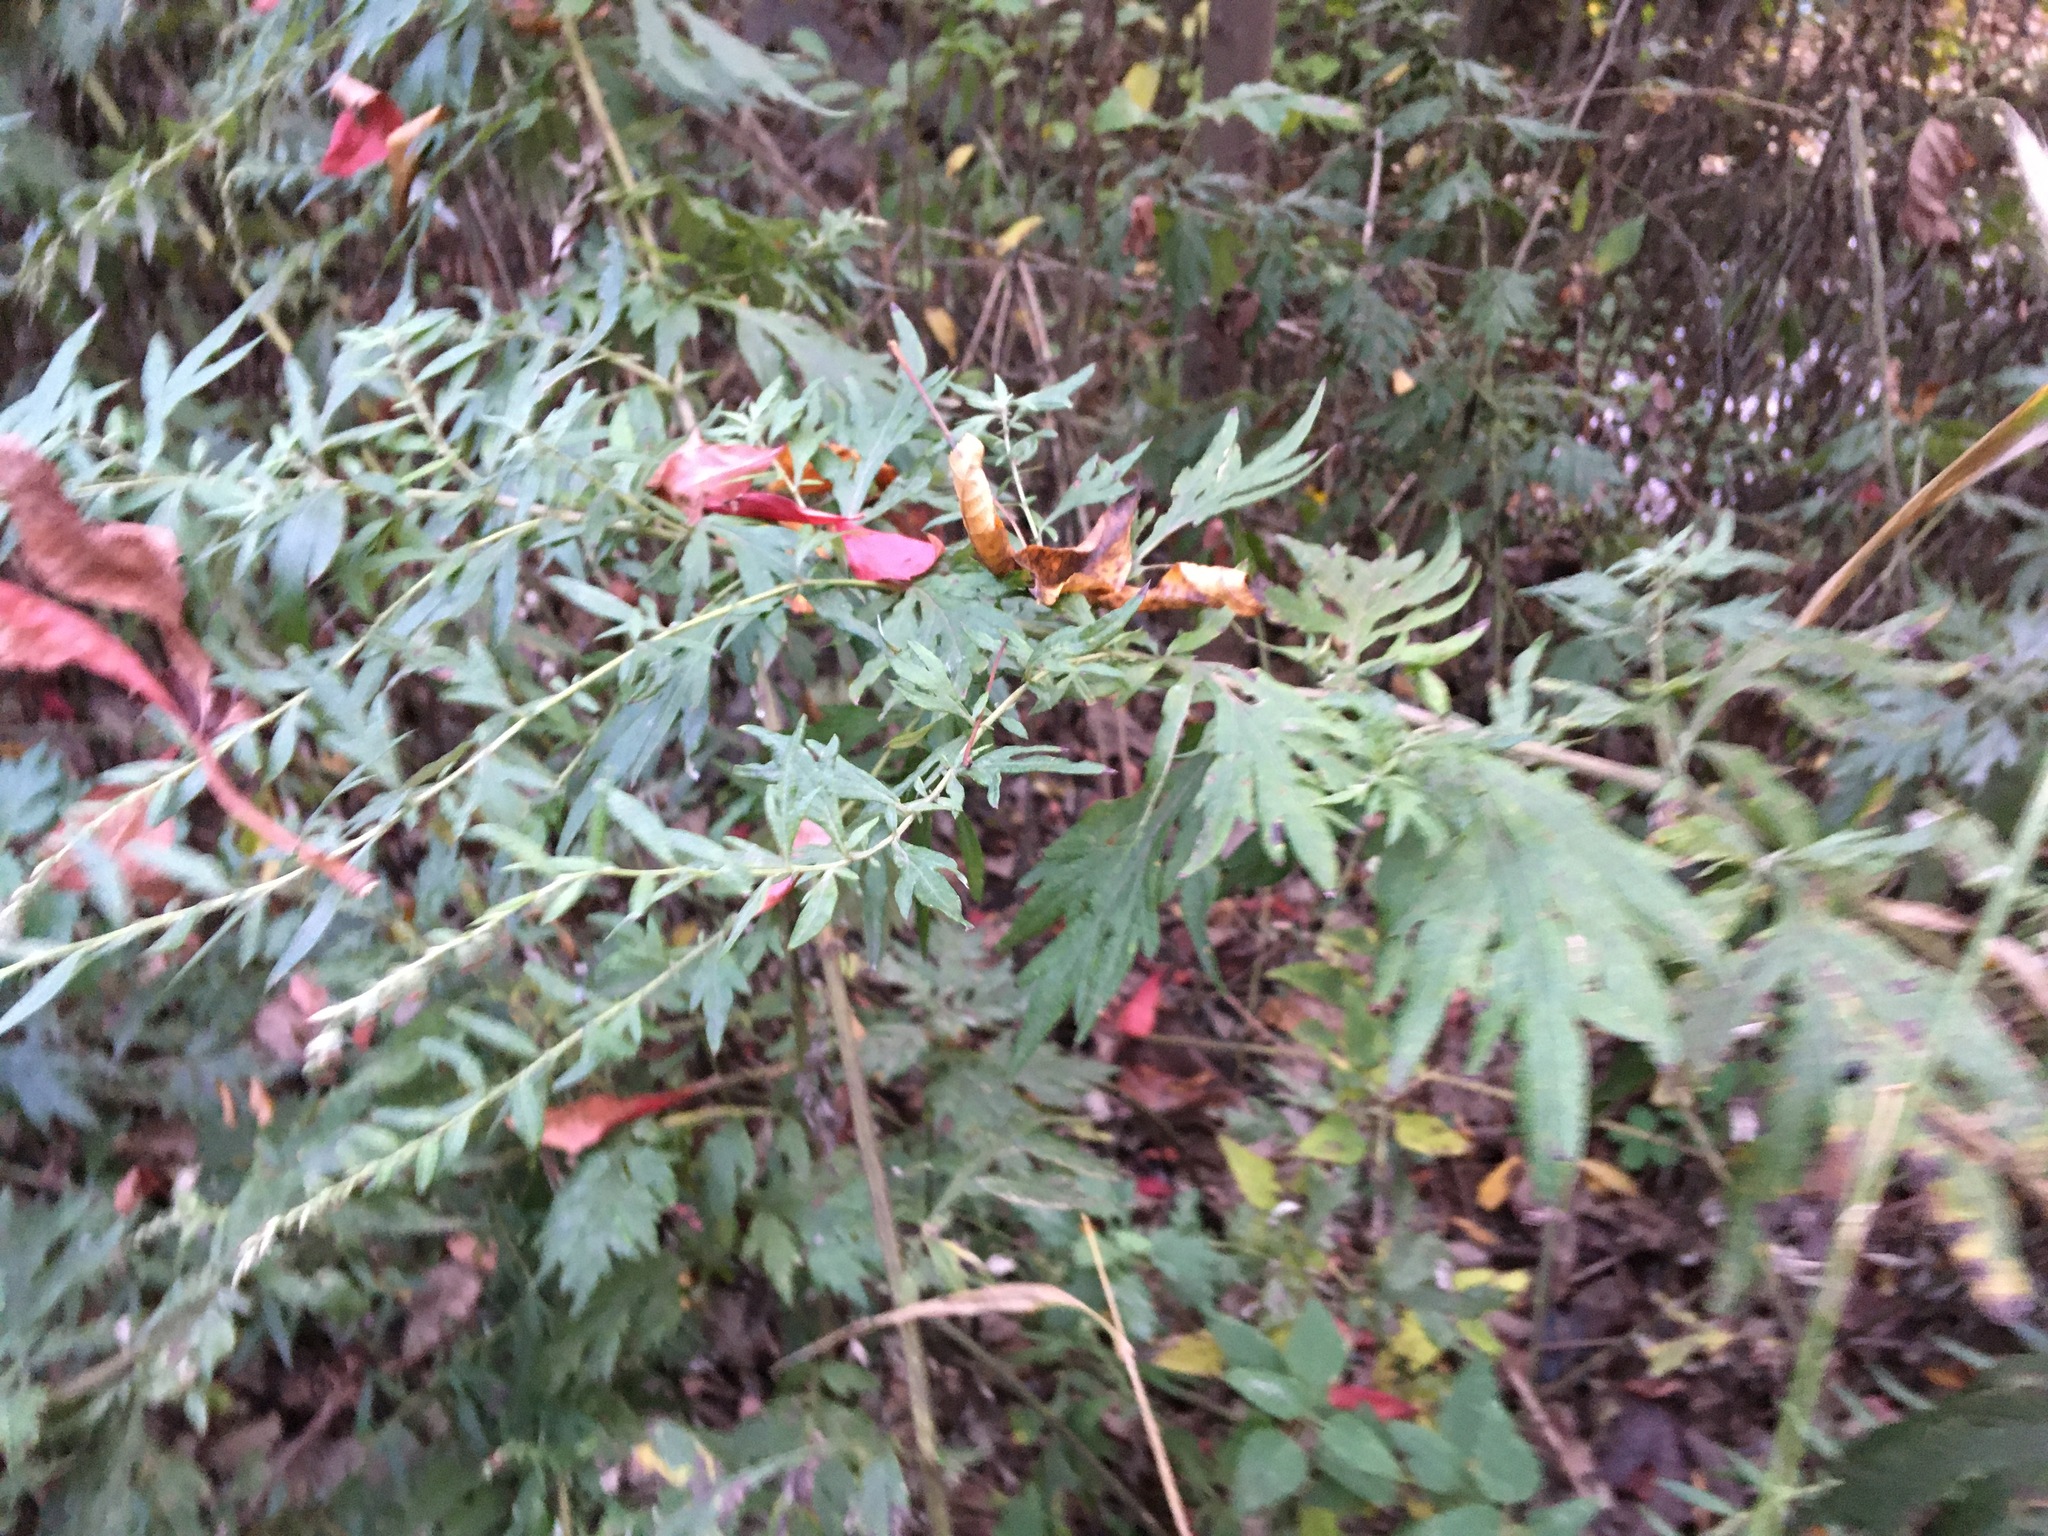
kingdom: Plantae
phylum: Tracheophyta
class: Magnoliopsida
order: Asterales
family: Asteraceae
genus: Artemisia
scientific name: Artemisia vulgaris
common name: Mugwort
